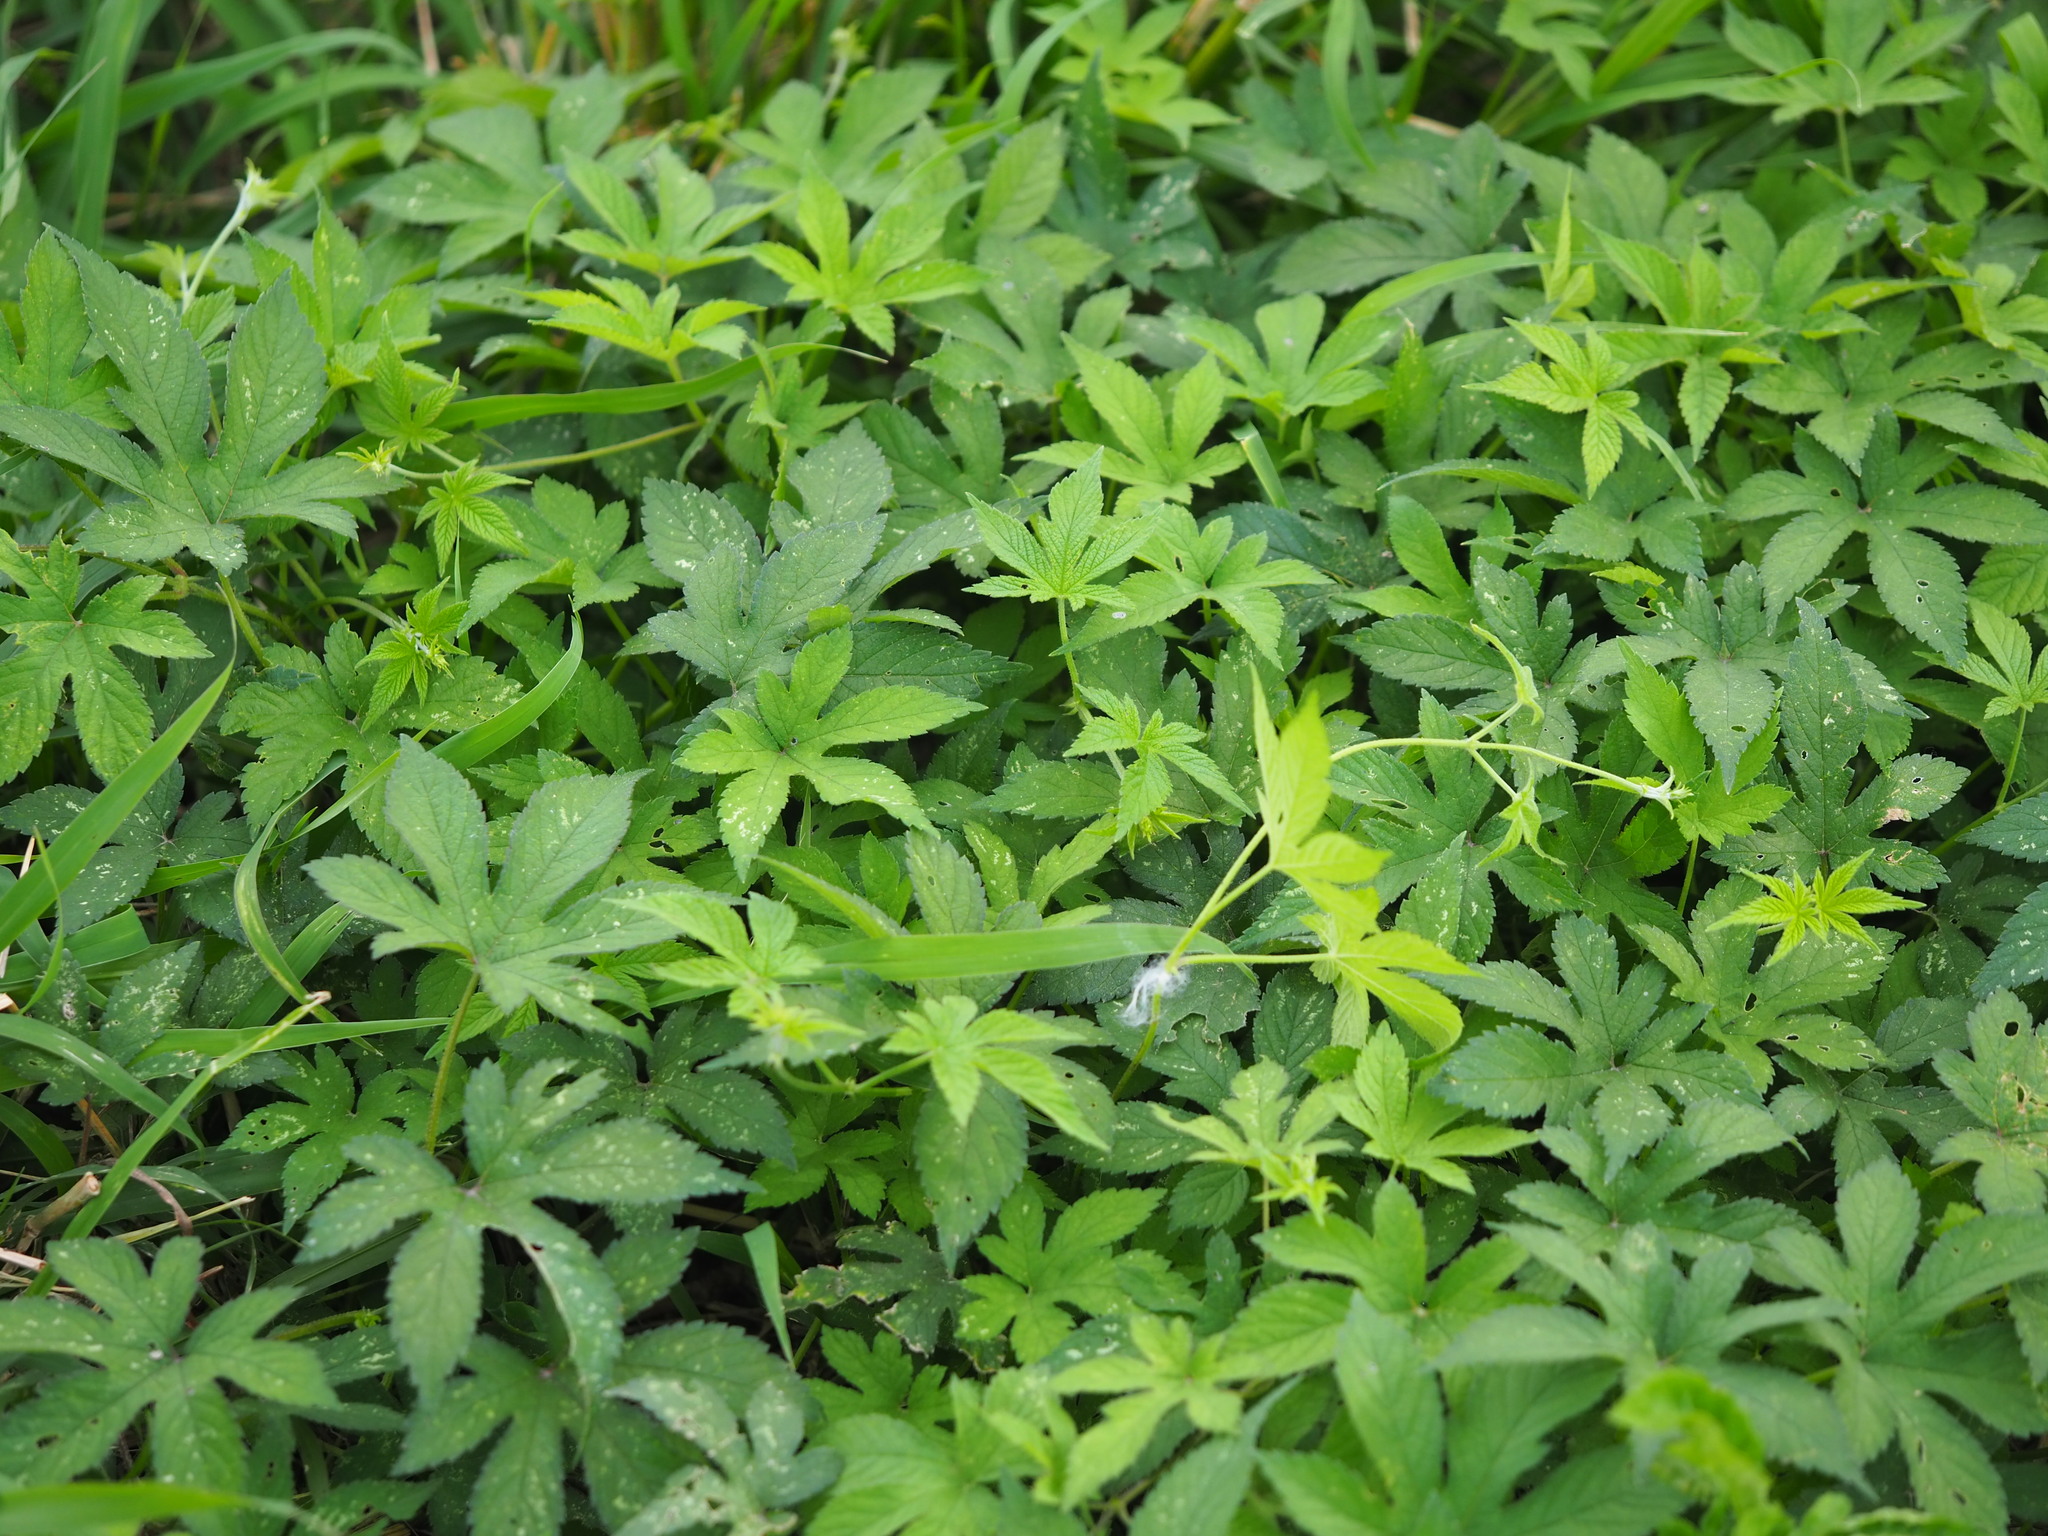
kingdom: Plantae
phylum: Tracheophyta
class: Magnoliopsida
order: Rosales
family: Cannabaceae
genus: Humulus
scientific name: Humulus scandens
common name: Japanese hop
